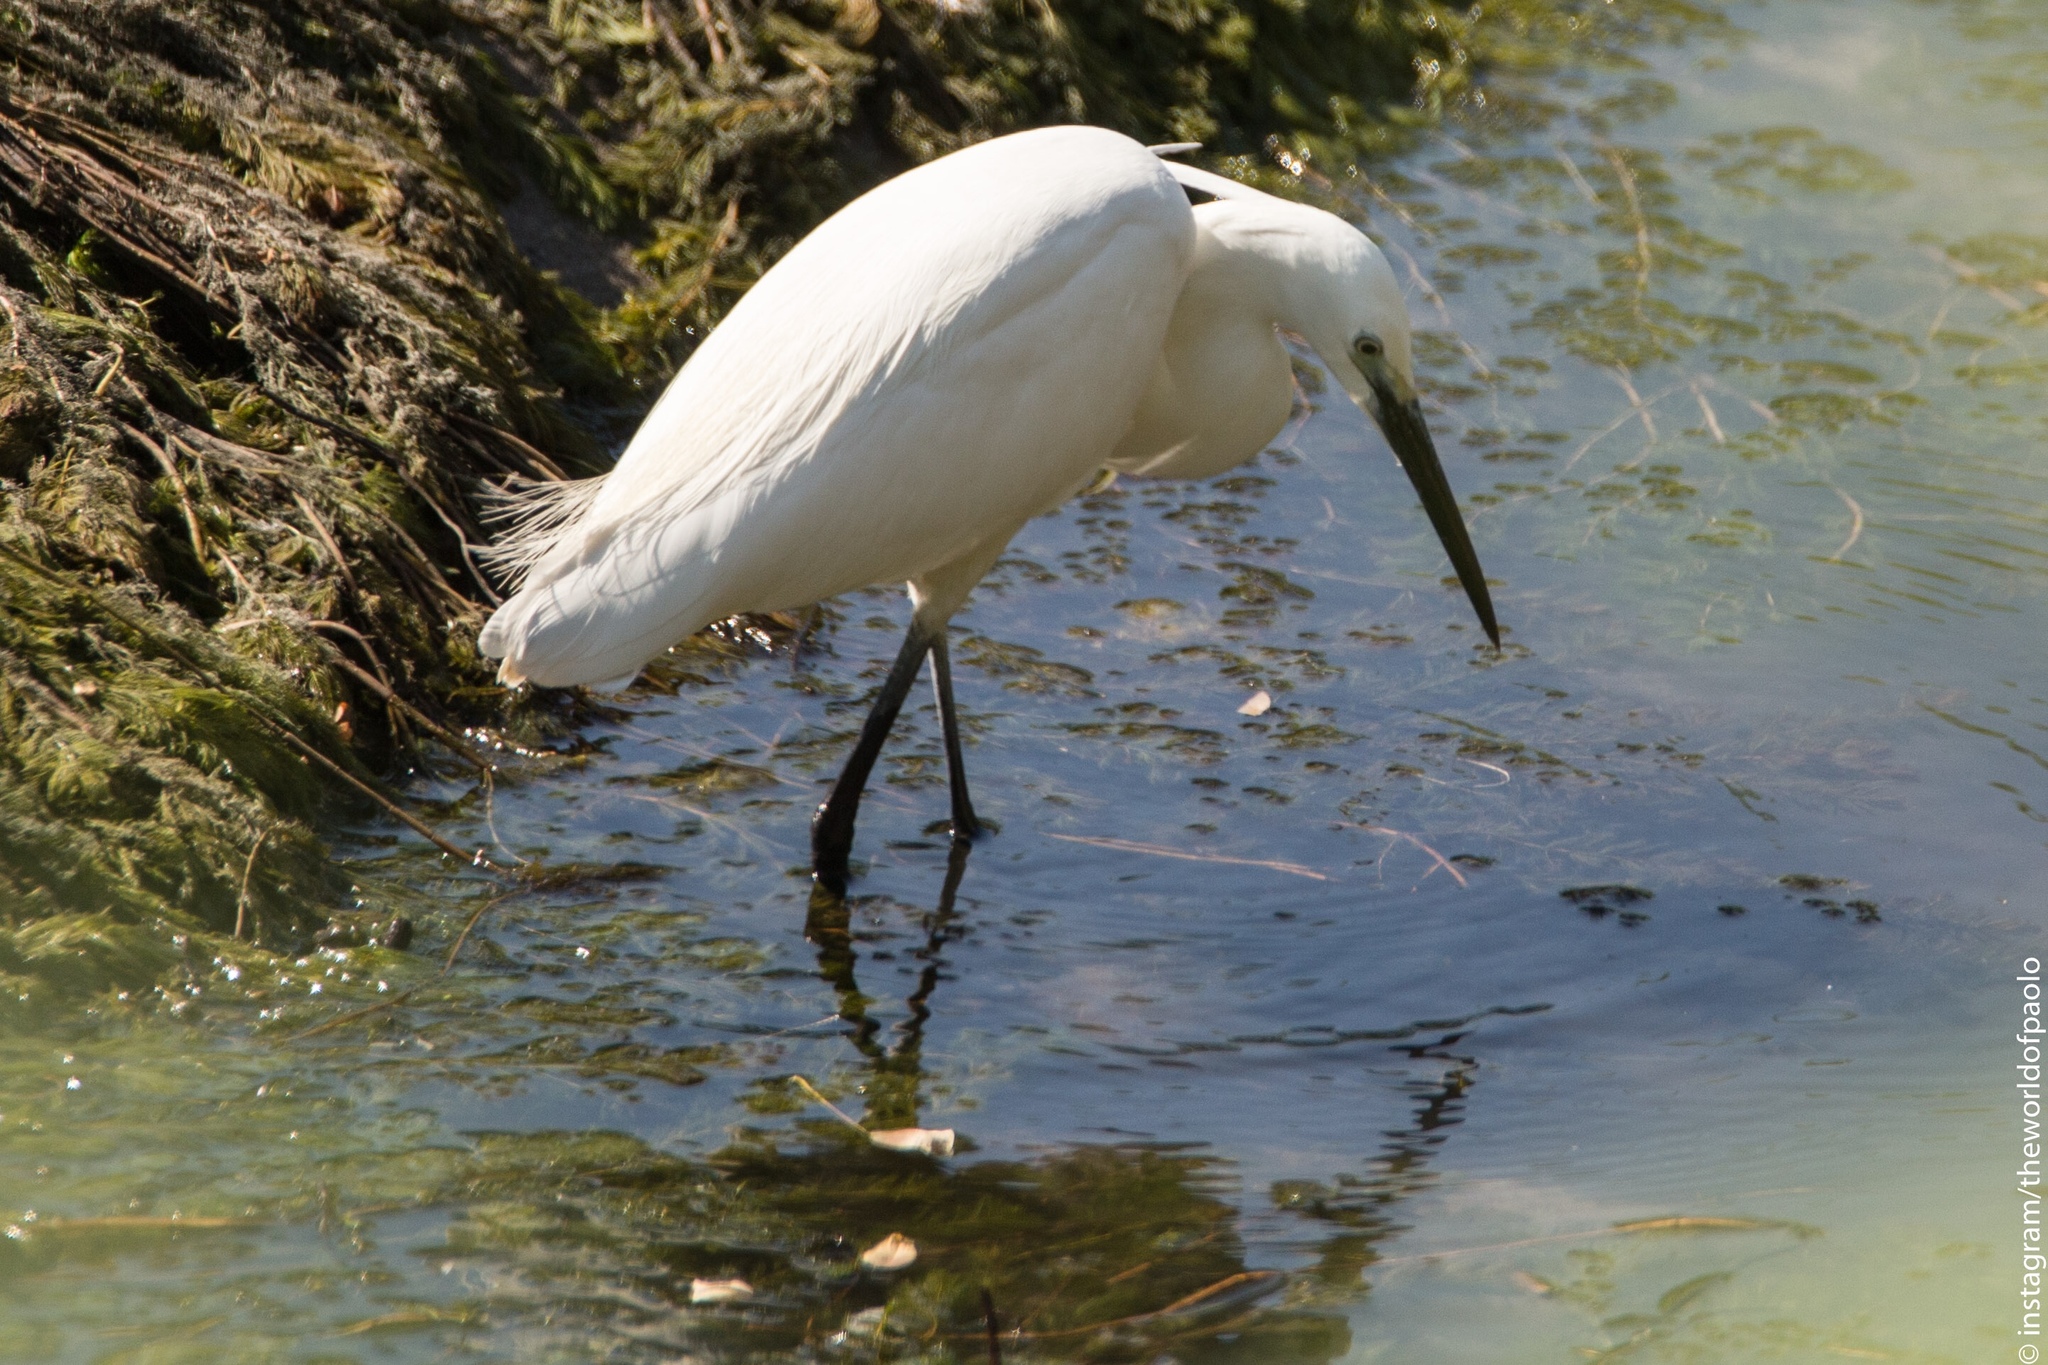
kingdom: Animalia
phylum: Chordata
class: Aves
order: Pelecaniformes
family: Ardeidae
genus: Egretta
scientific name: Egretta garzetta
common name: Little egret
